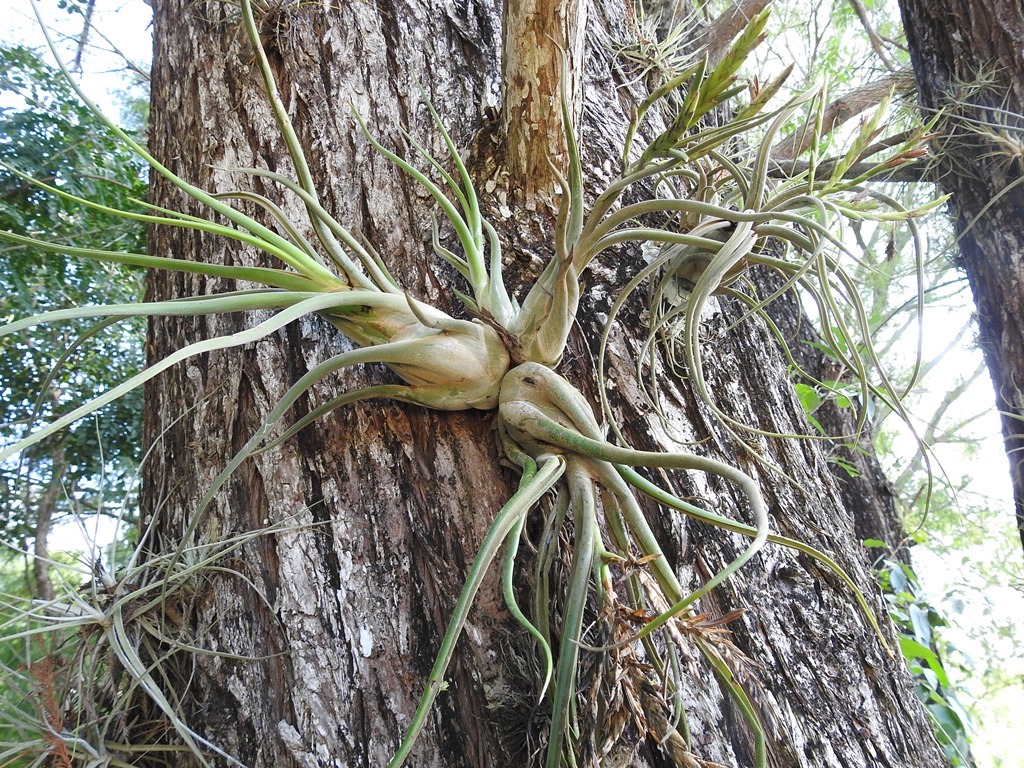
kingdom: Plantae
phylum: Tracheophyta
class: Liliopsida
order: Poales
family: Bromeliaceae
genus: Tillandsia
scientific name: Tillandsia caput-medusae
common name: Octopus plant
